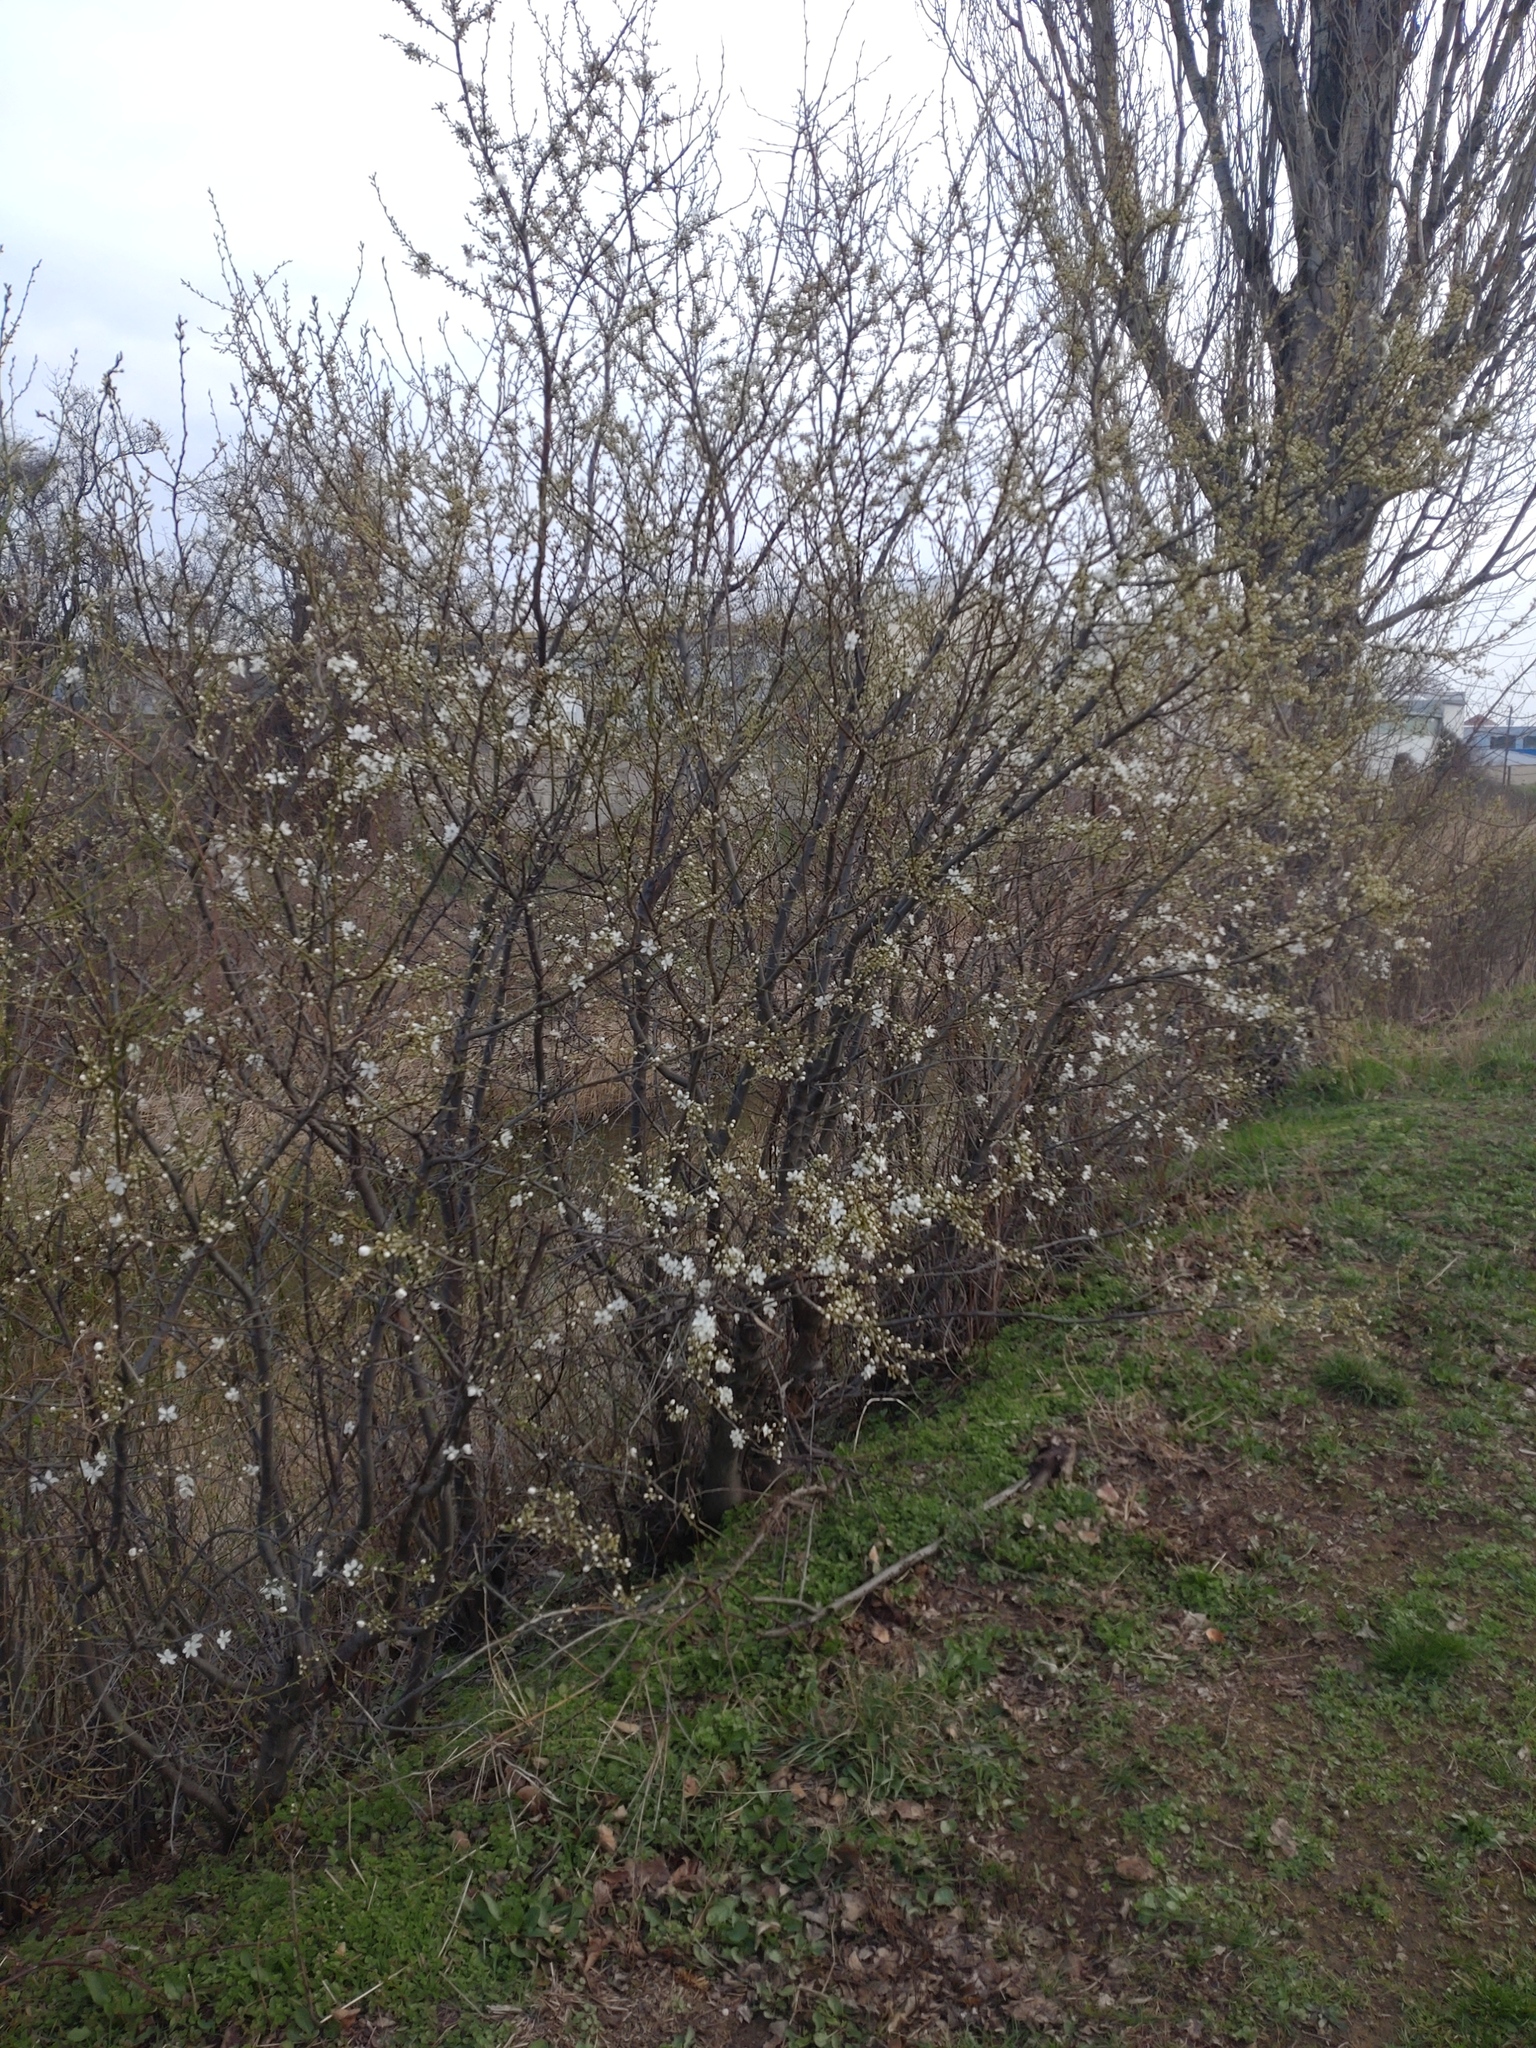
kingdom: Plantae
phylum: Tracheophyta
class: Magnoliopsida
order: Rosales
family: Rosaceae
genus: Prunus
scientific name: Prunus cerasifera
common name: Cherry plum
